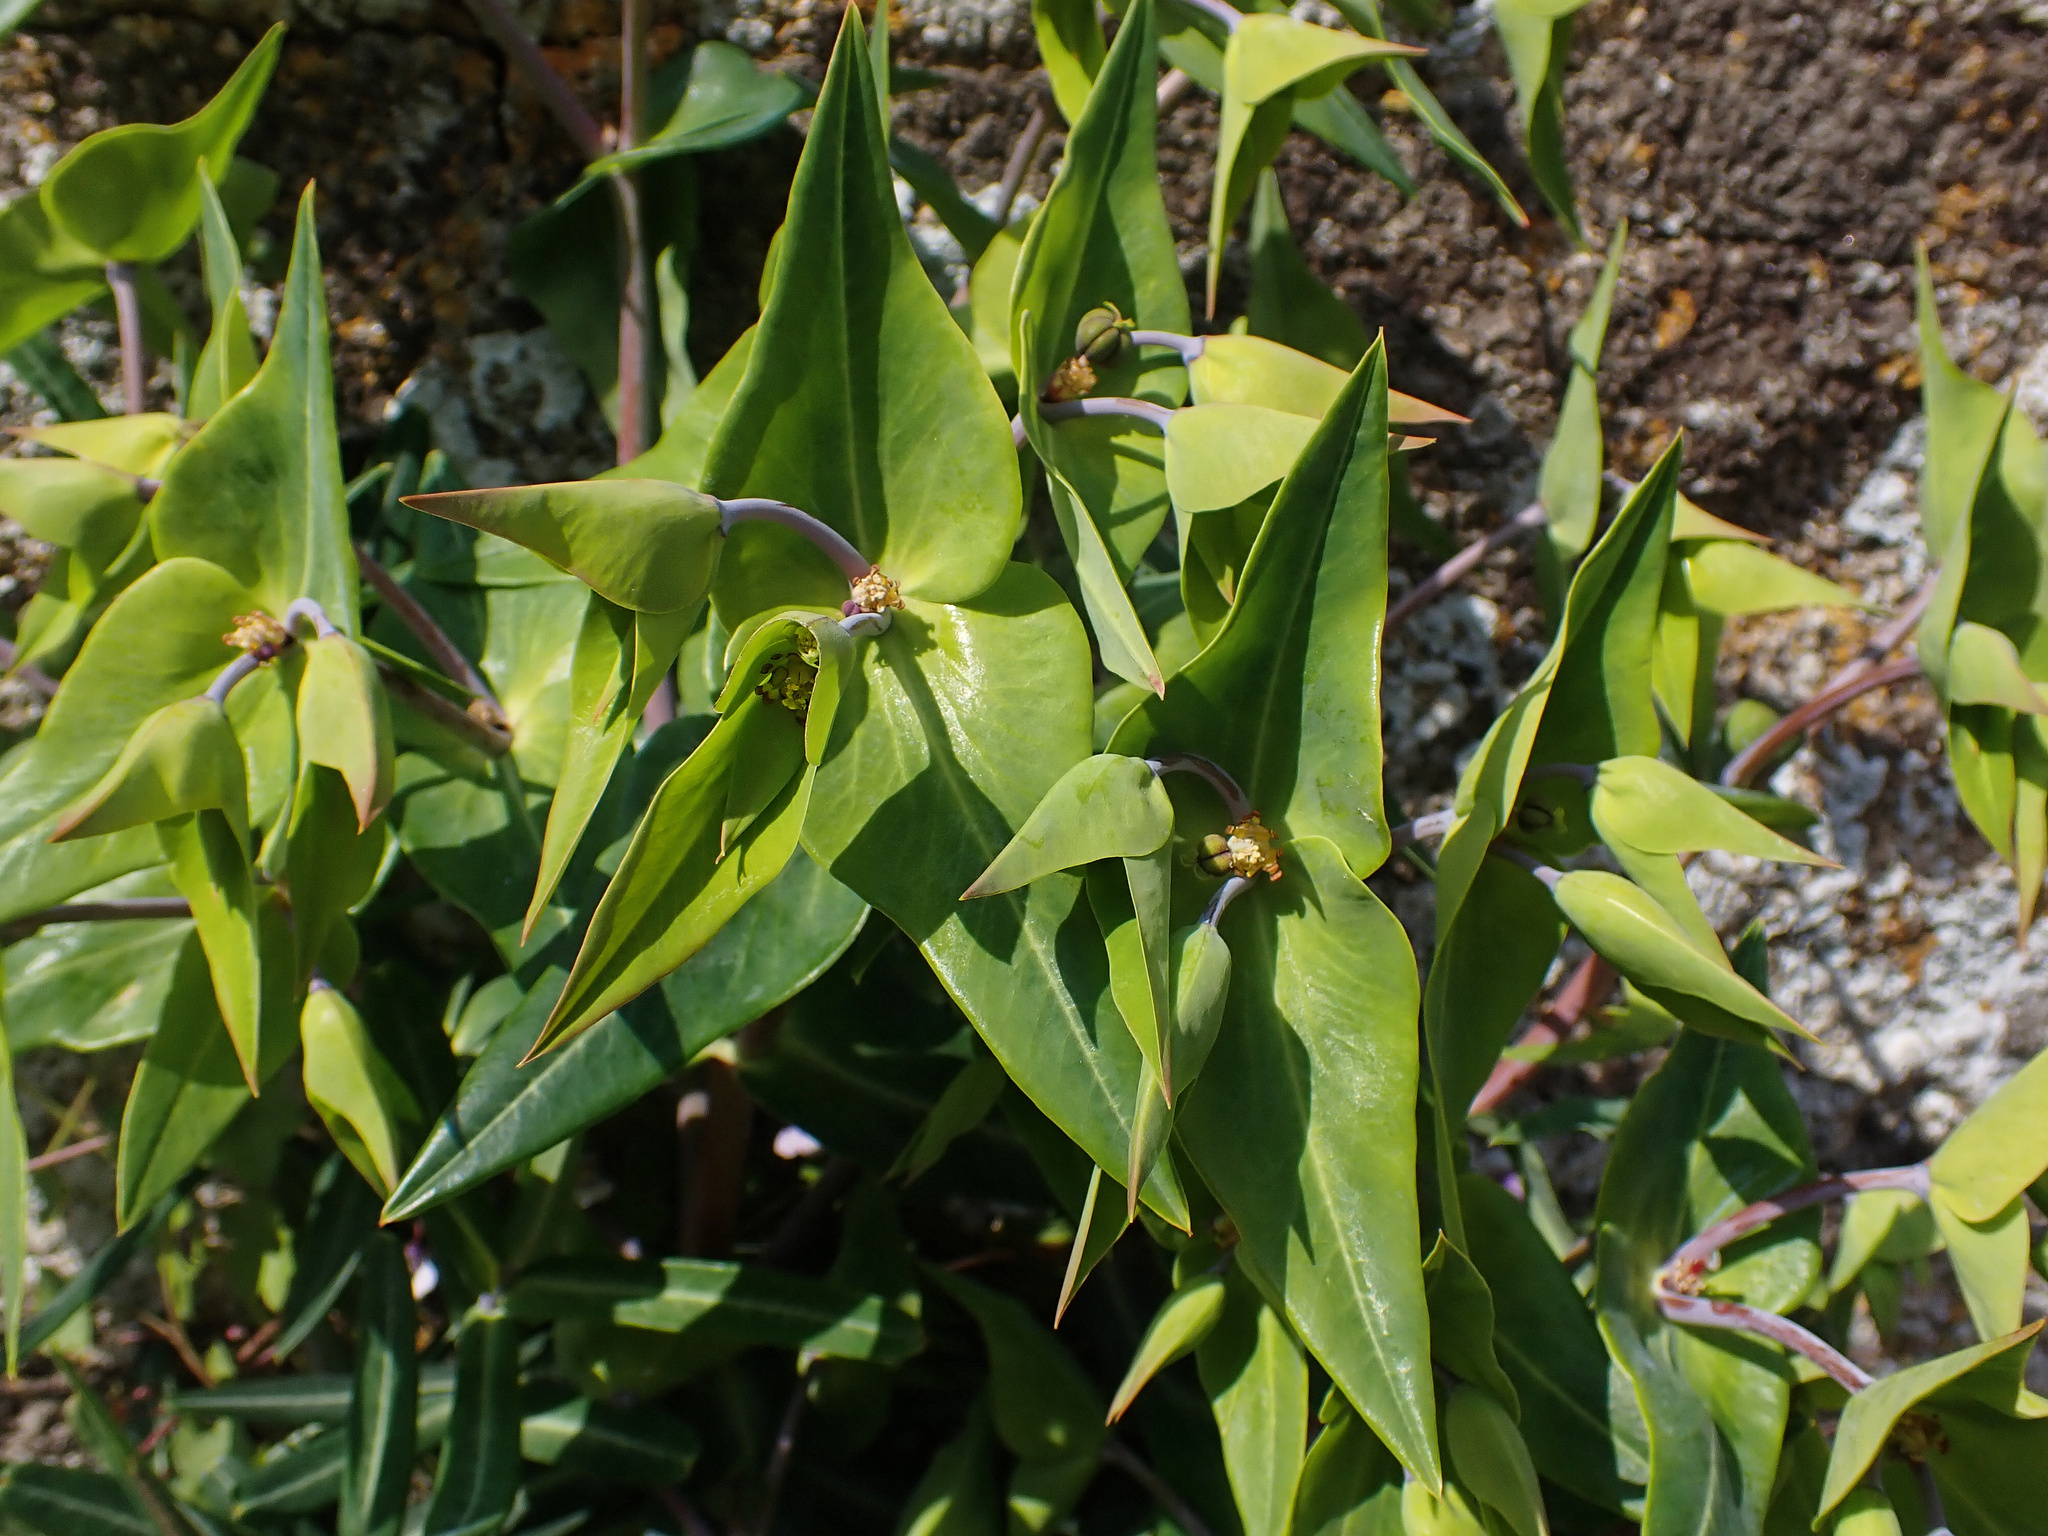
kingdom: Plantae
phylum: Tracheophyta
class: Magnoliopsida
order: Malpighiales
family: Euphorbiaceae
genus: Euphorbia
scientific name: Euphorbia lathyris
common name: Caper spurge
